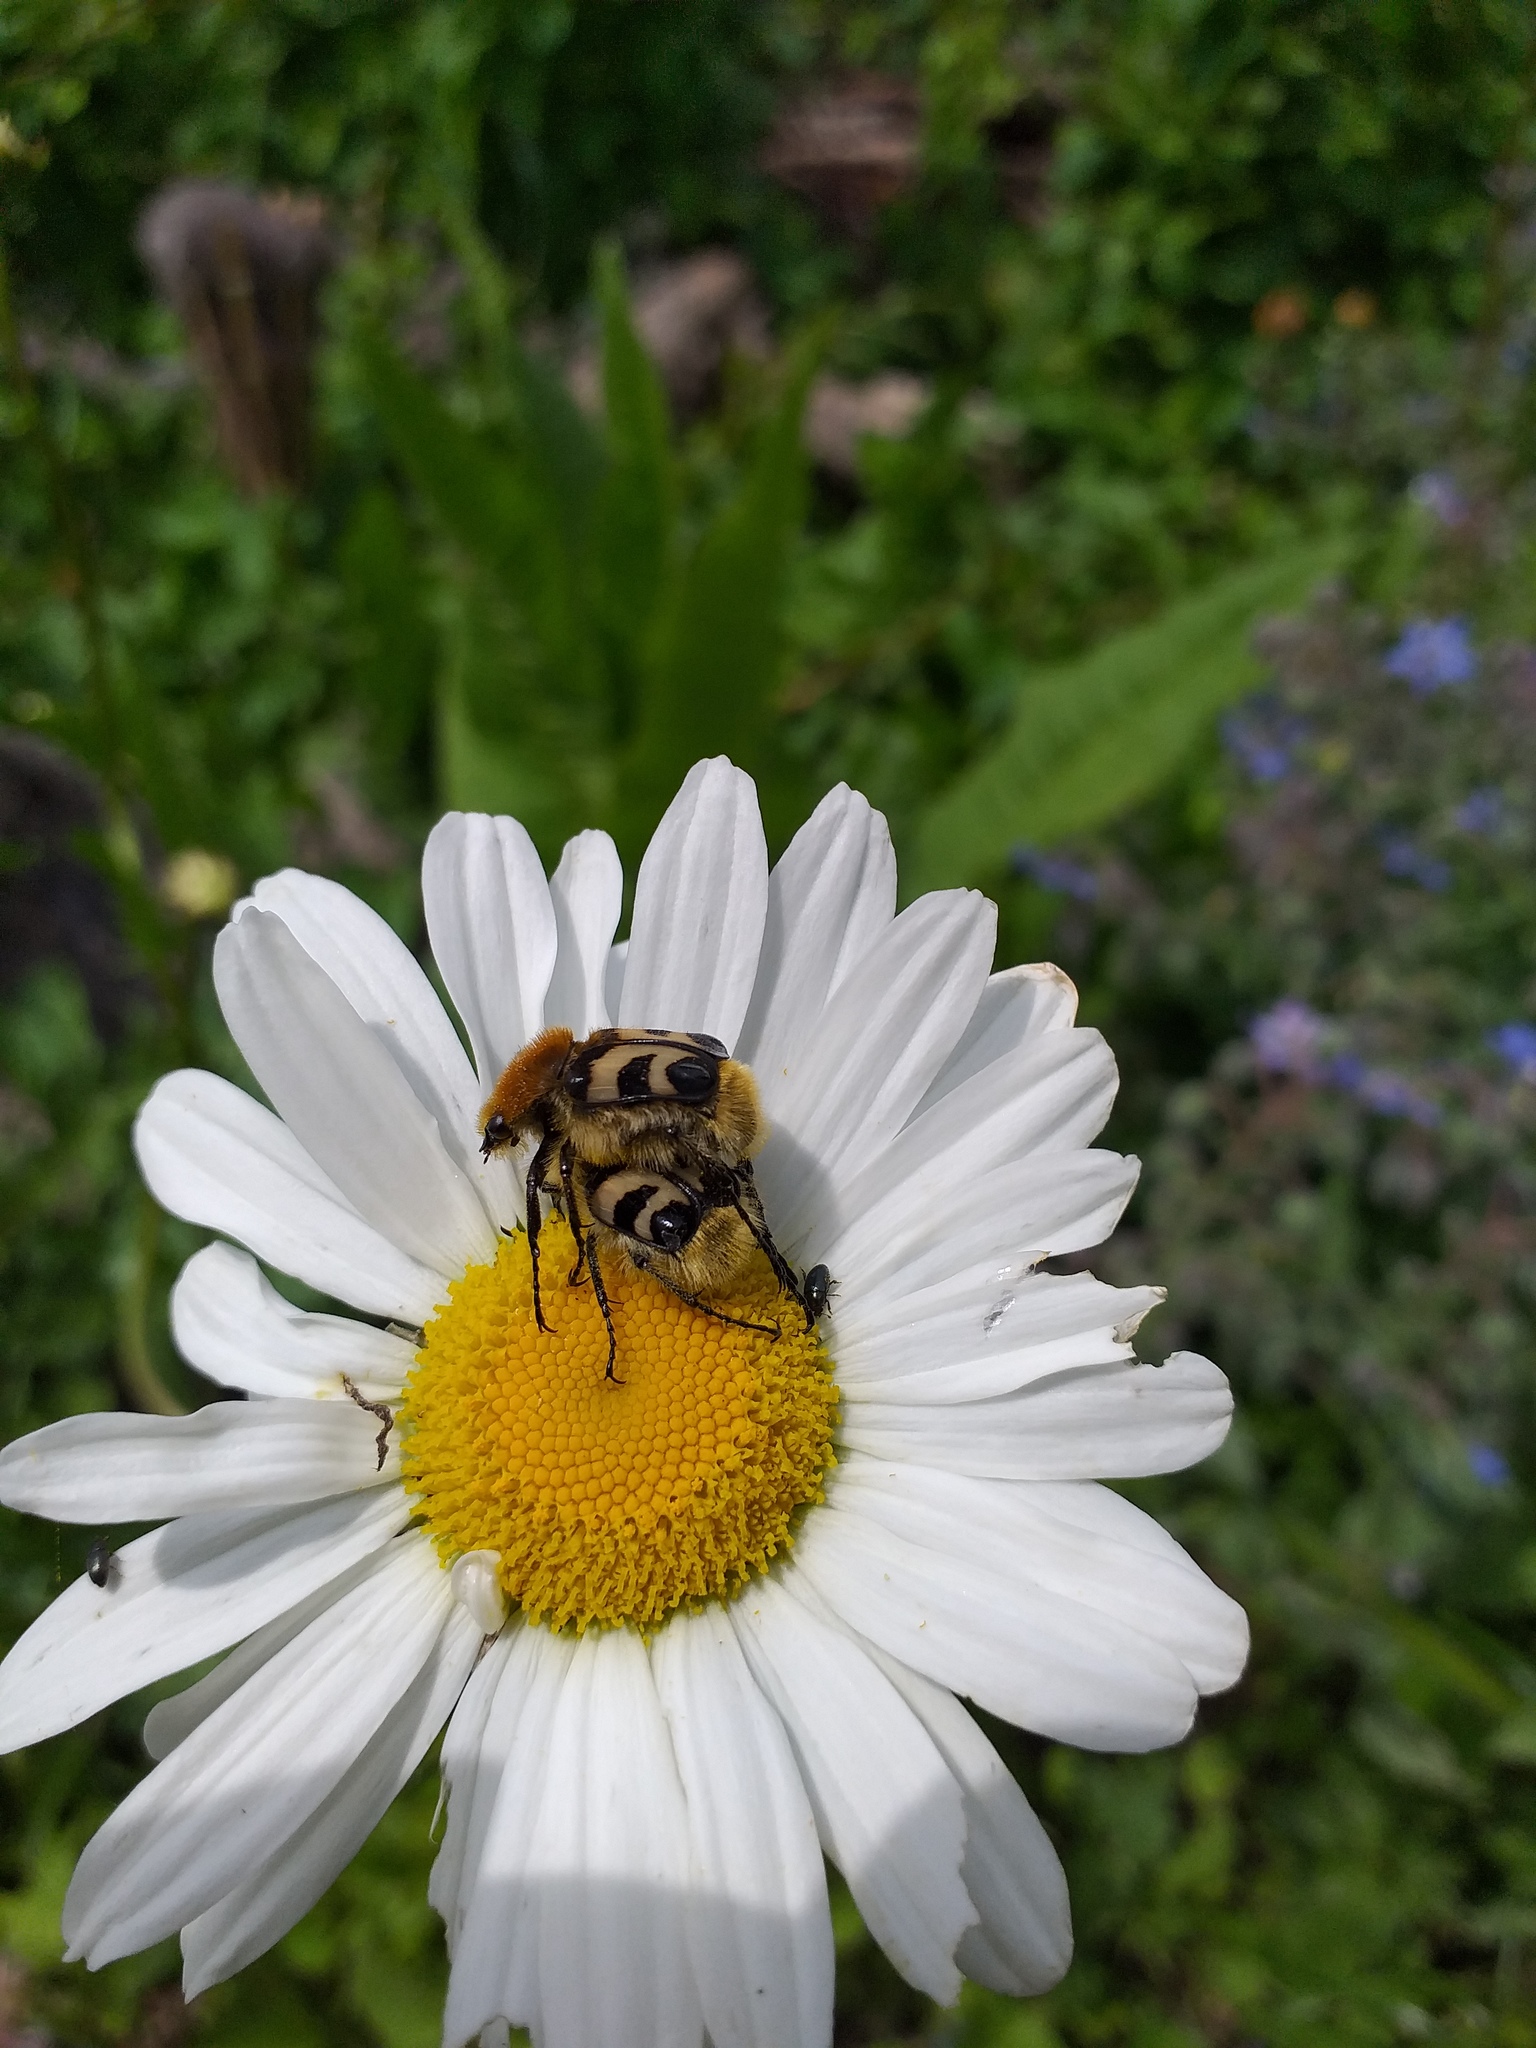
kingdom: Animalia
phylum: Arthropoda
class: Insecta
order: Coleoptera
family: Scarabaeidae
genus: Trichius
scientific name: Trichius fasciatus
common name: Bee beetle
